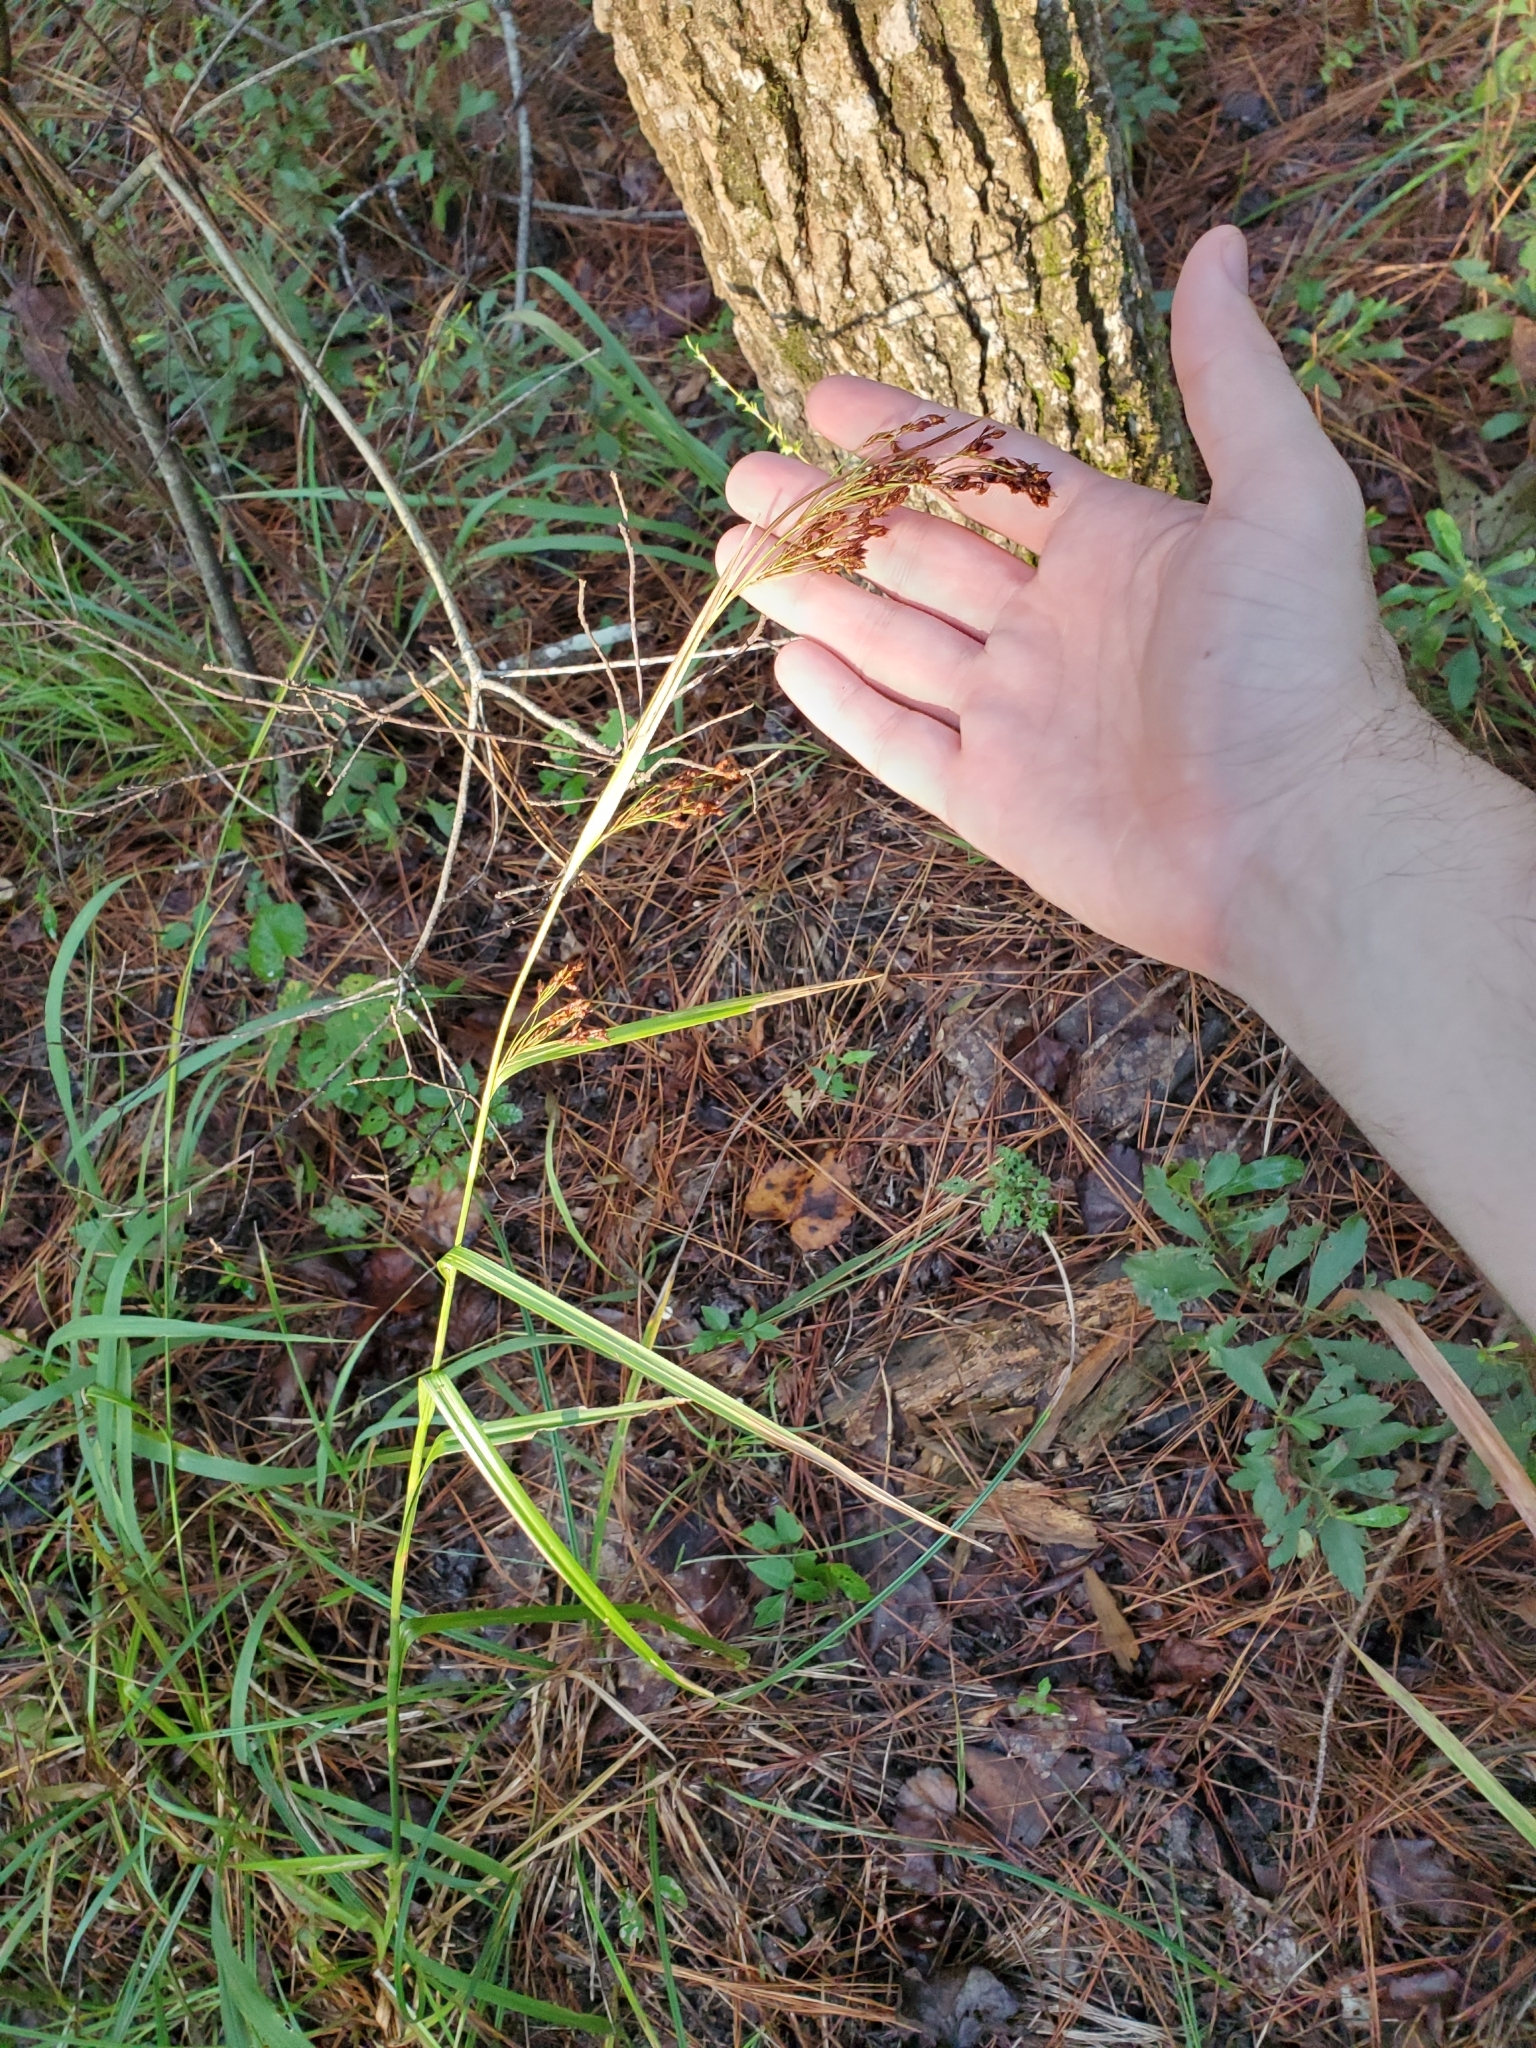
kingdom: Plantae
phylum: Tracheophyta
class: Liliopsida
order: Poales
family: Cyperaceae
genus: Rhynchospora
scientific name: Rhynchospora caduca
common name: Anglestem beaksedge
